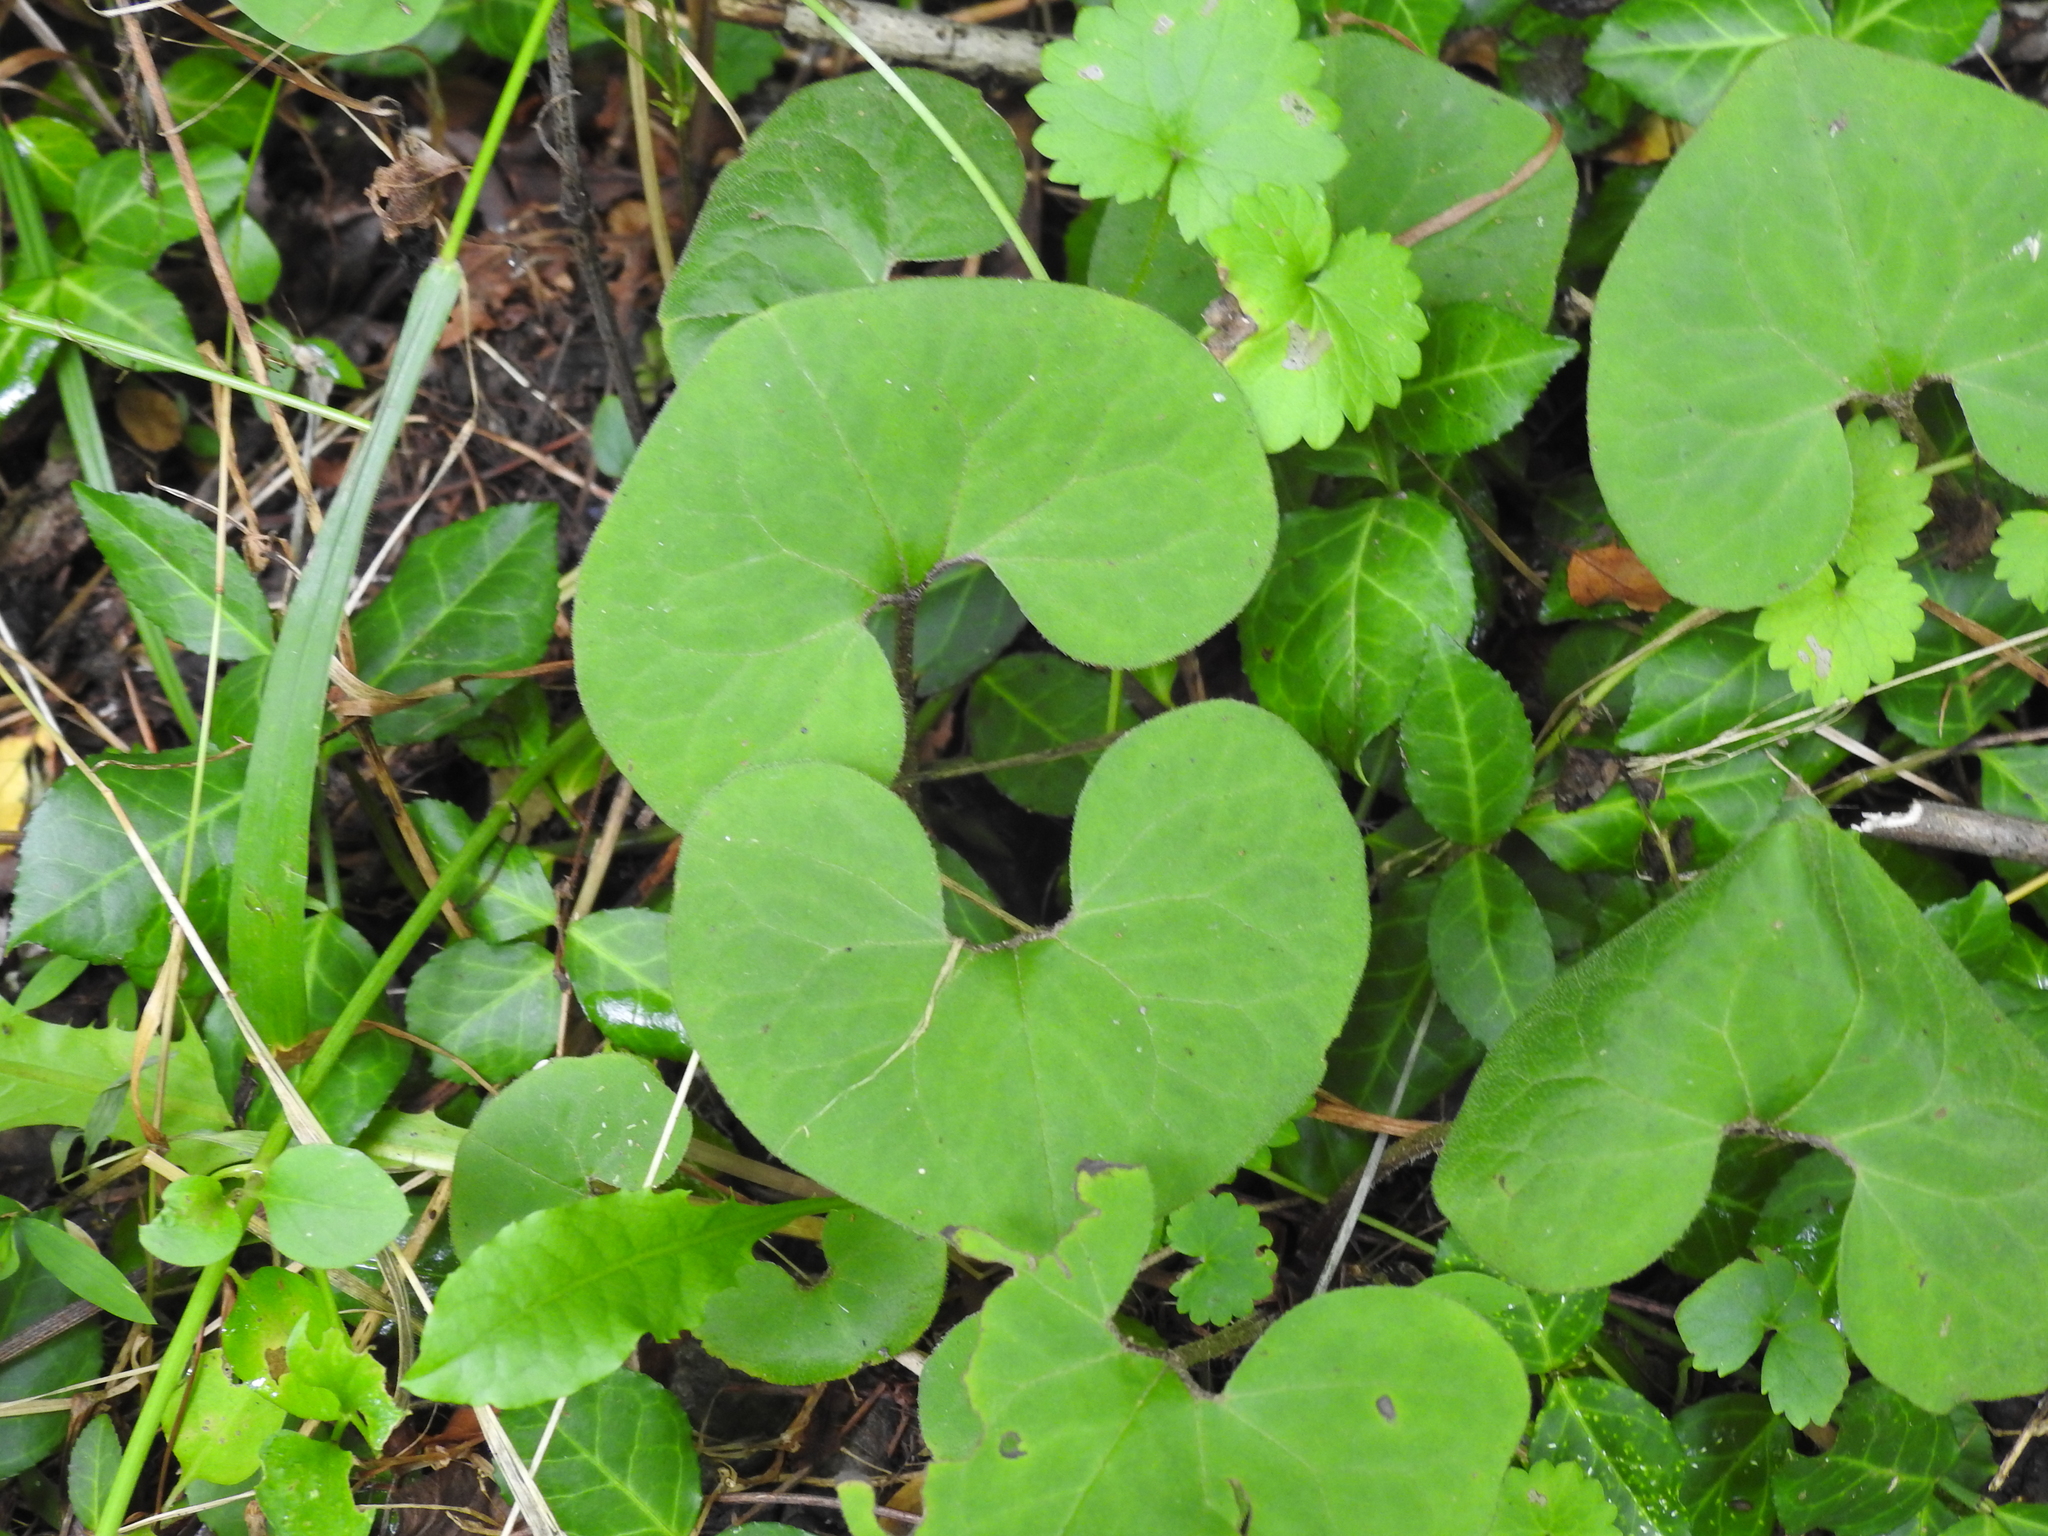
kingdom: Plantae
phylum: Tracheophyta
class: Magnoliopsida
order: Piperales
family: Aristolochiaceae
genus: Asarum
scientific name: Asarum canadense
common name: Wild ginger
